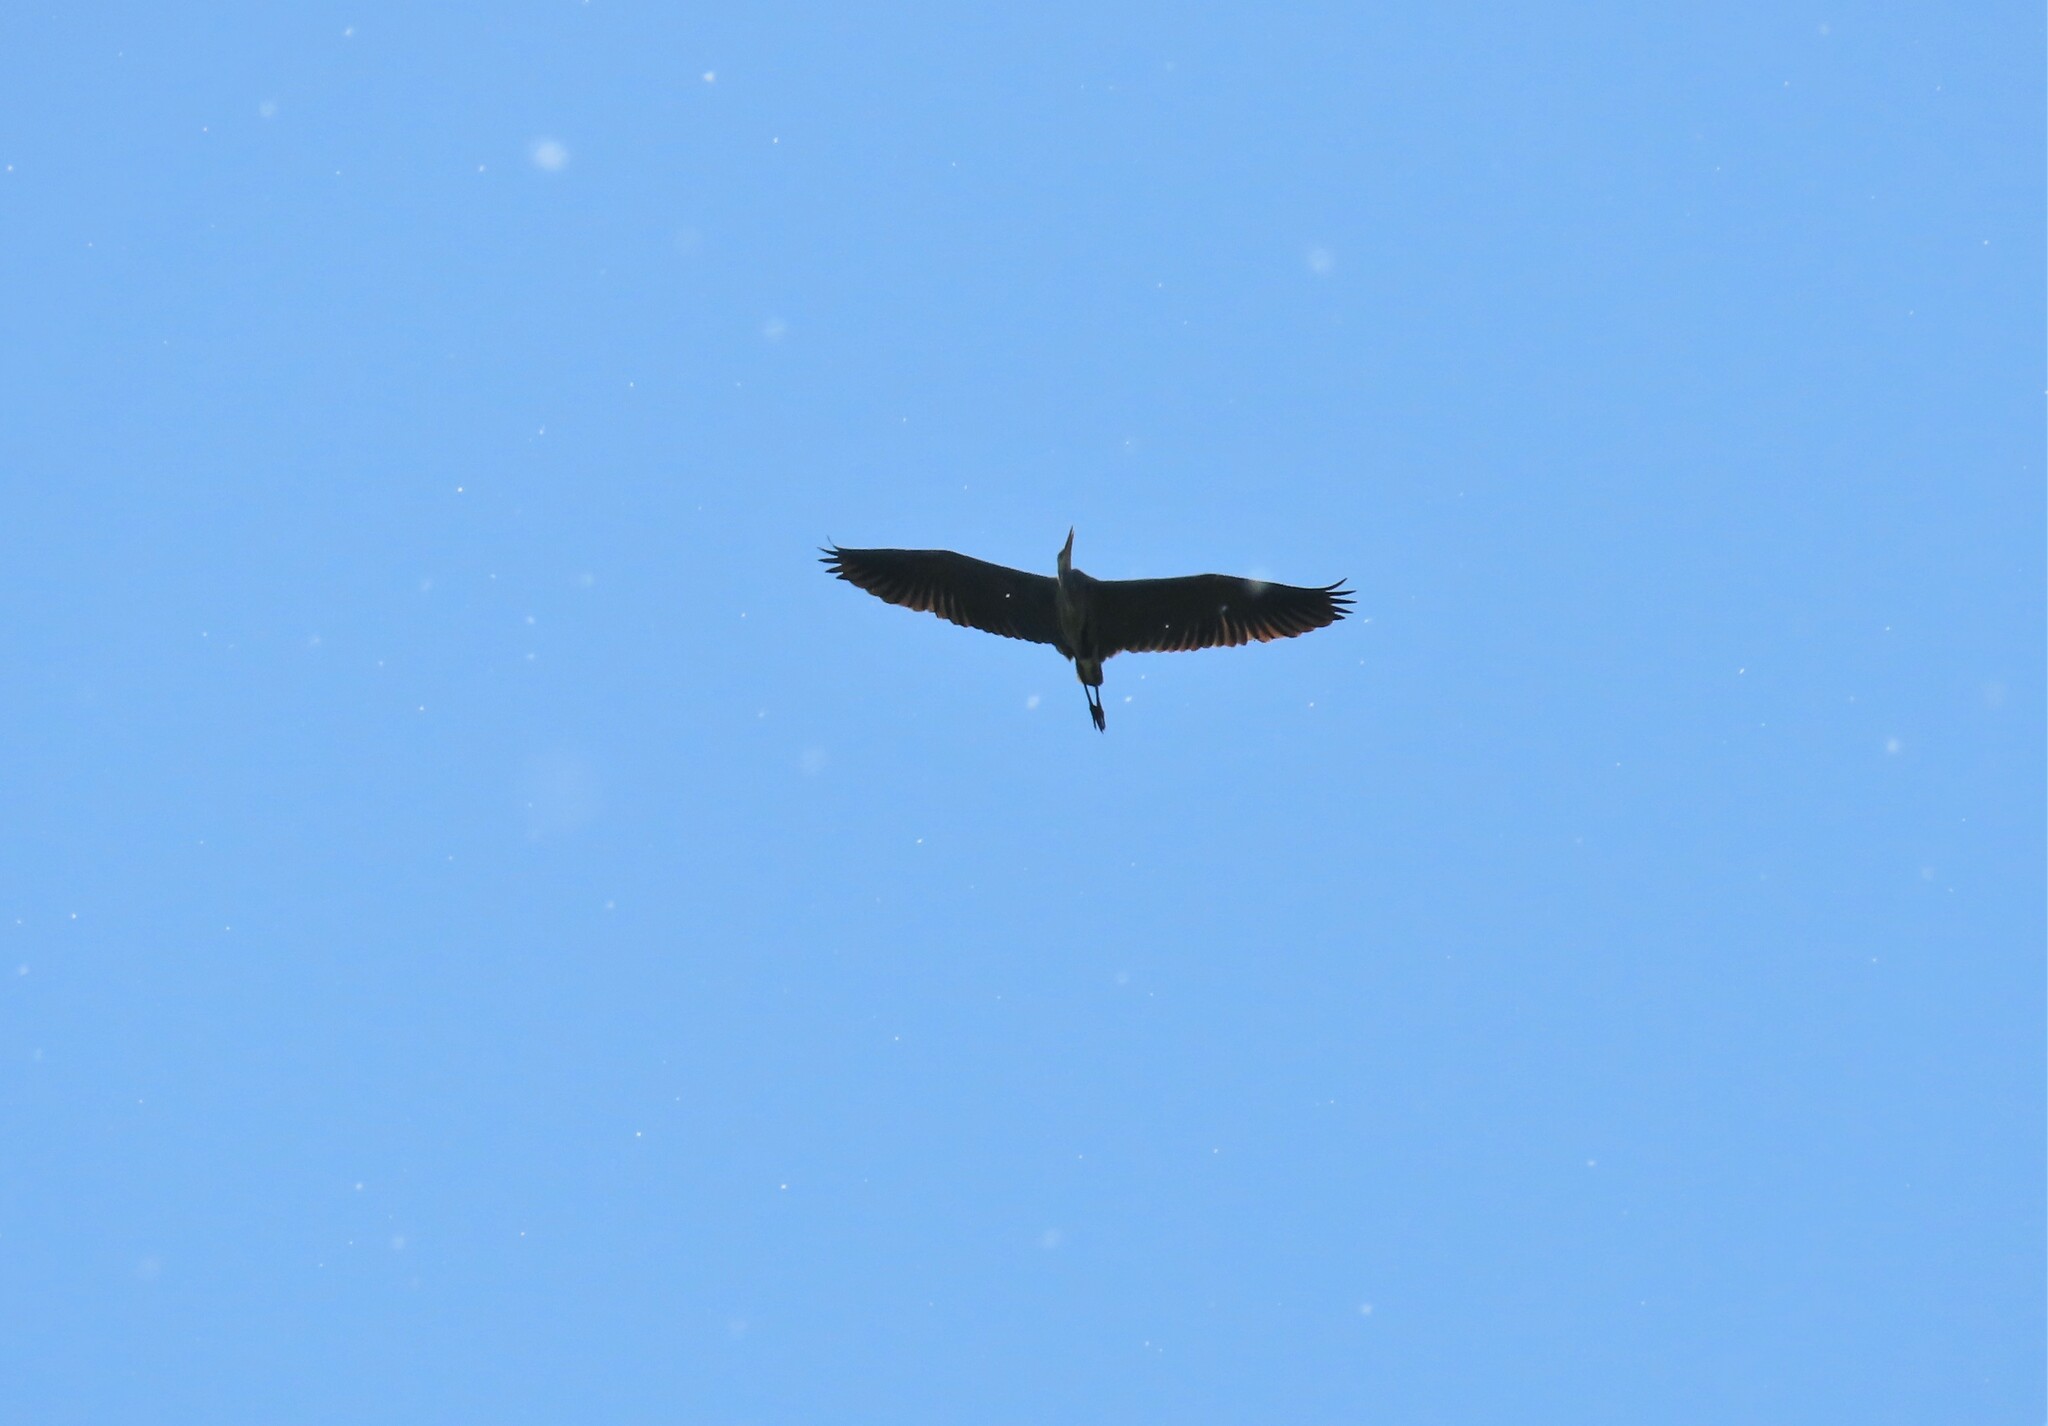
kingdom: Animalia
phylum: Chordata
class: Aves
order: Pelecaniformes
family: Ardeidae
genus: Ardea
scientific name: Ardea herodias
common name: Great blue heron
